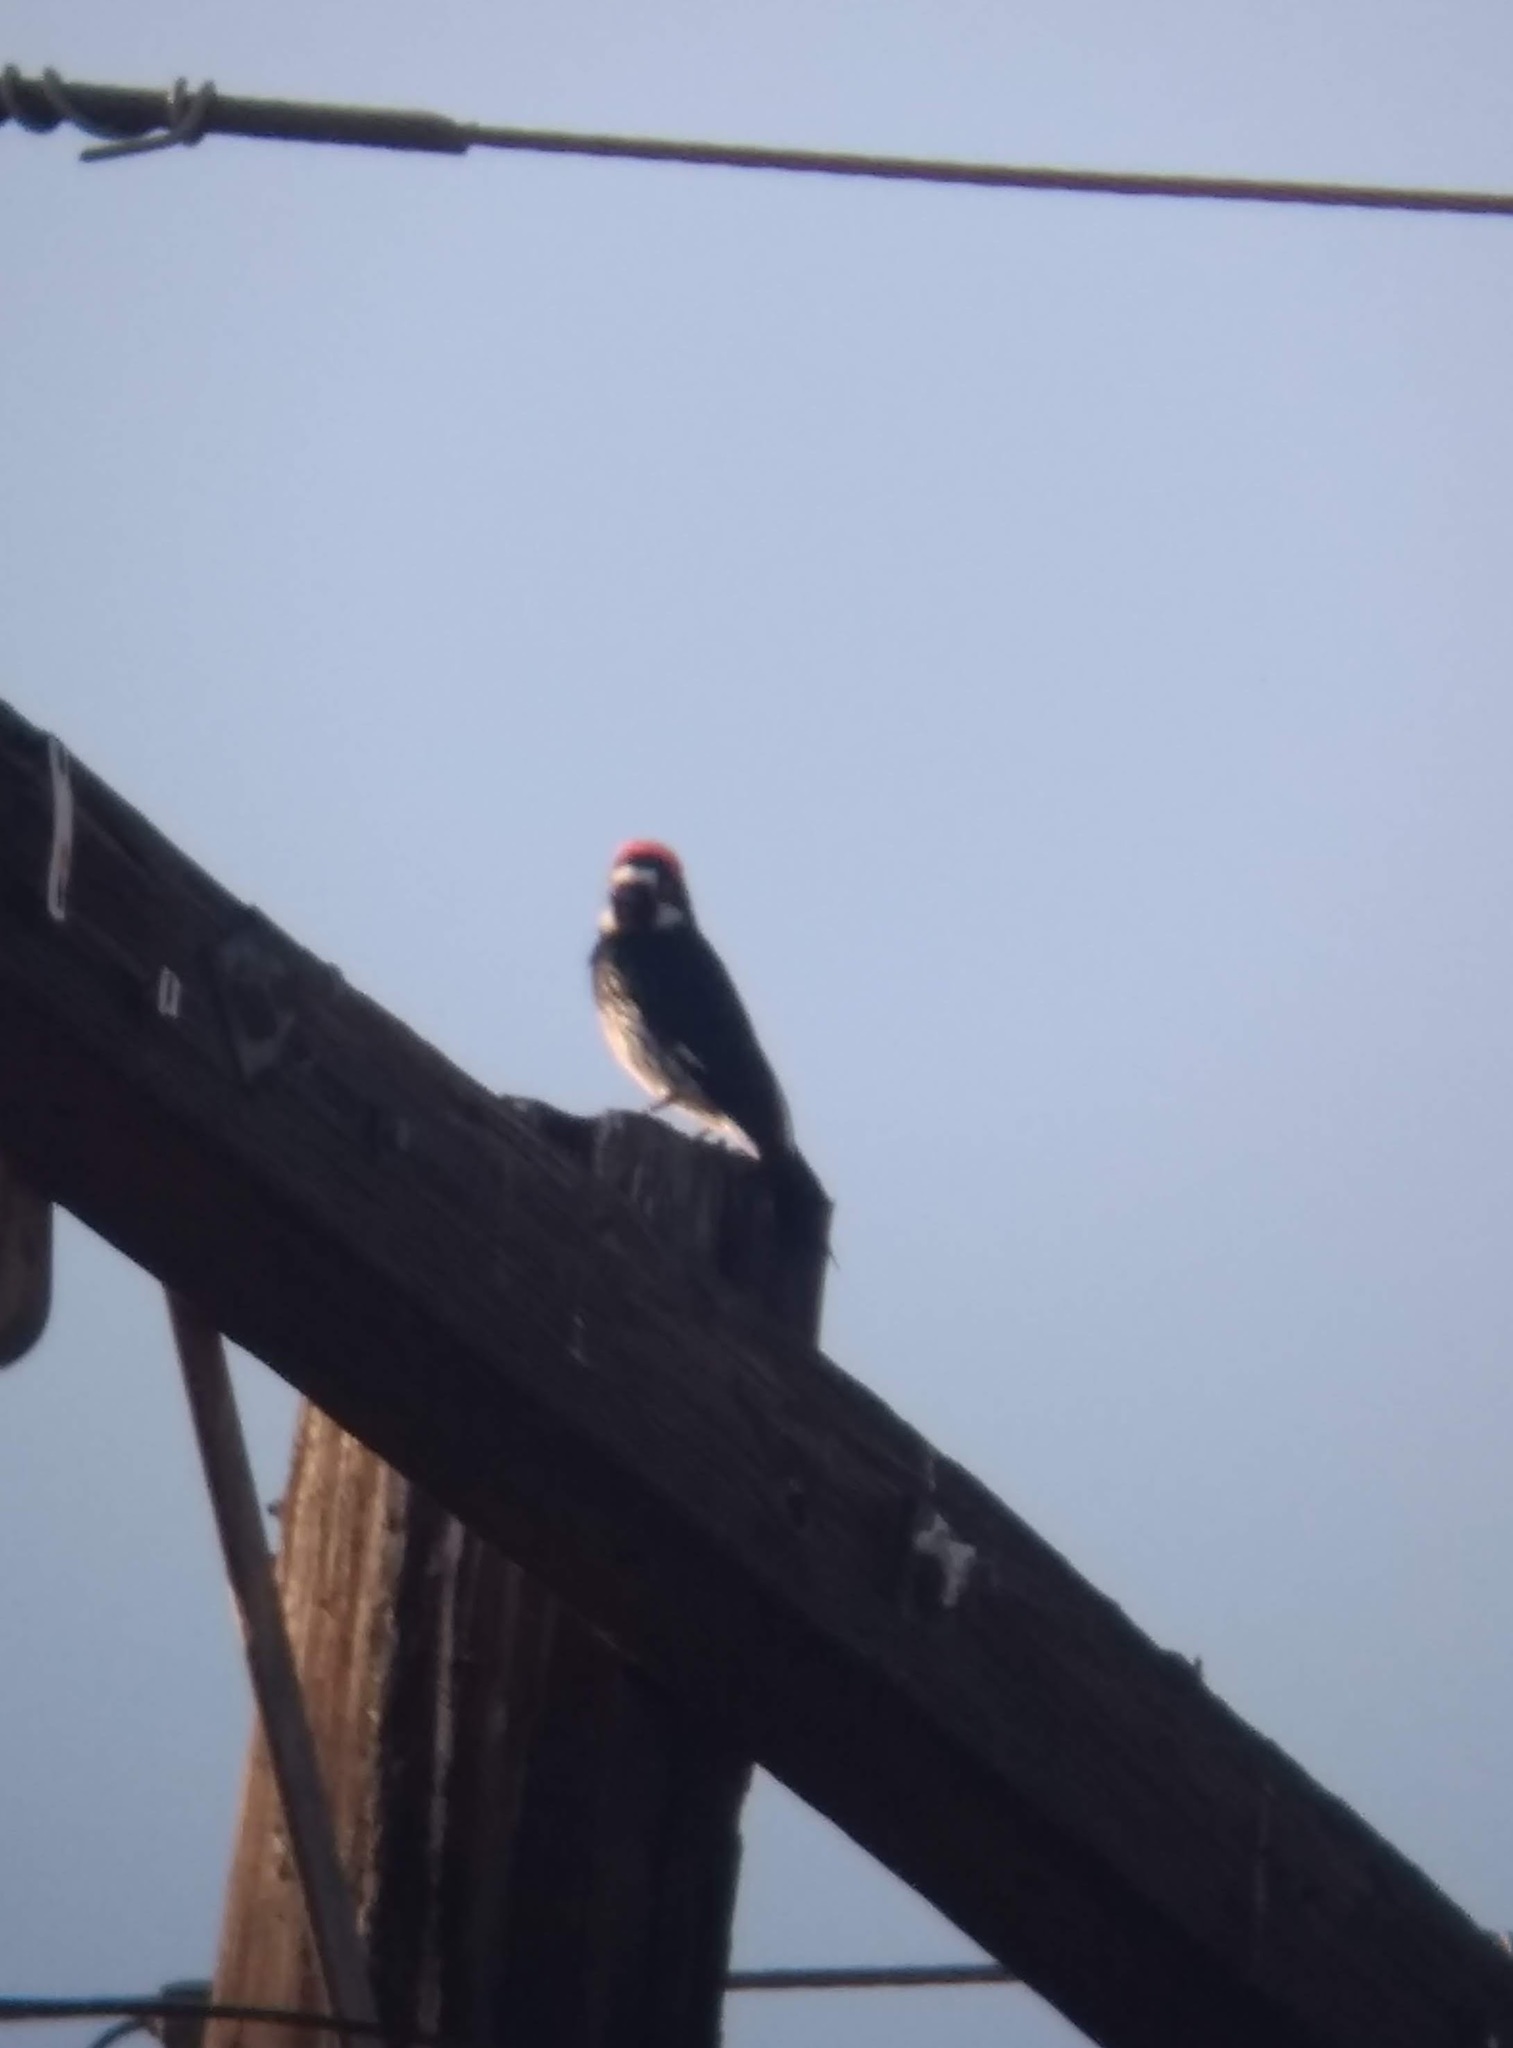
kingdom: Animalia
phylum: Chordata
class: Aves
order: Piciformes
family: Picidae
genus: Melanerpes
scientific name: Melanerpes formicivorus
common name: Acorn woodpecker
